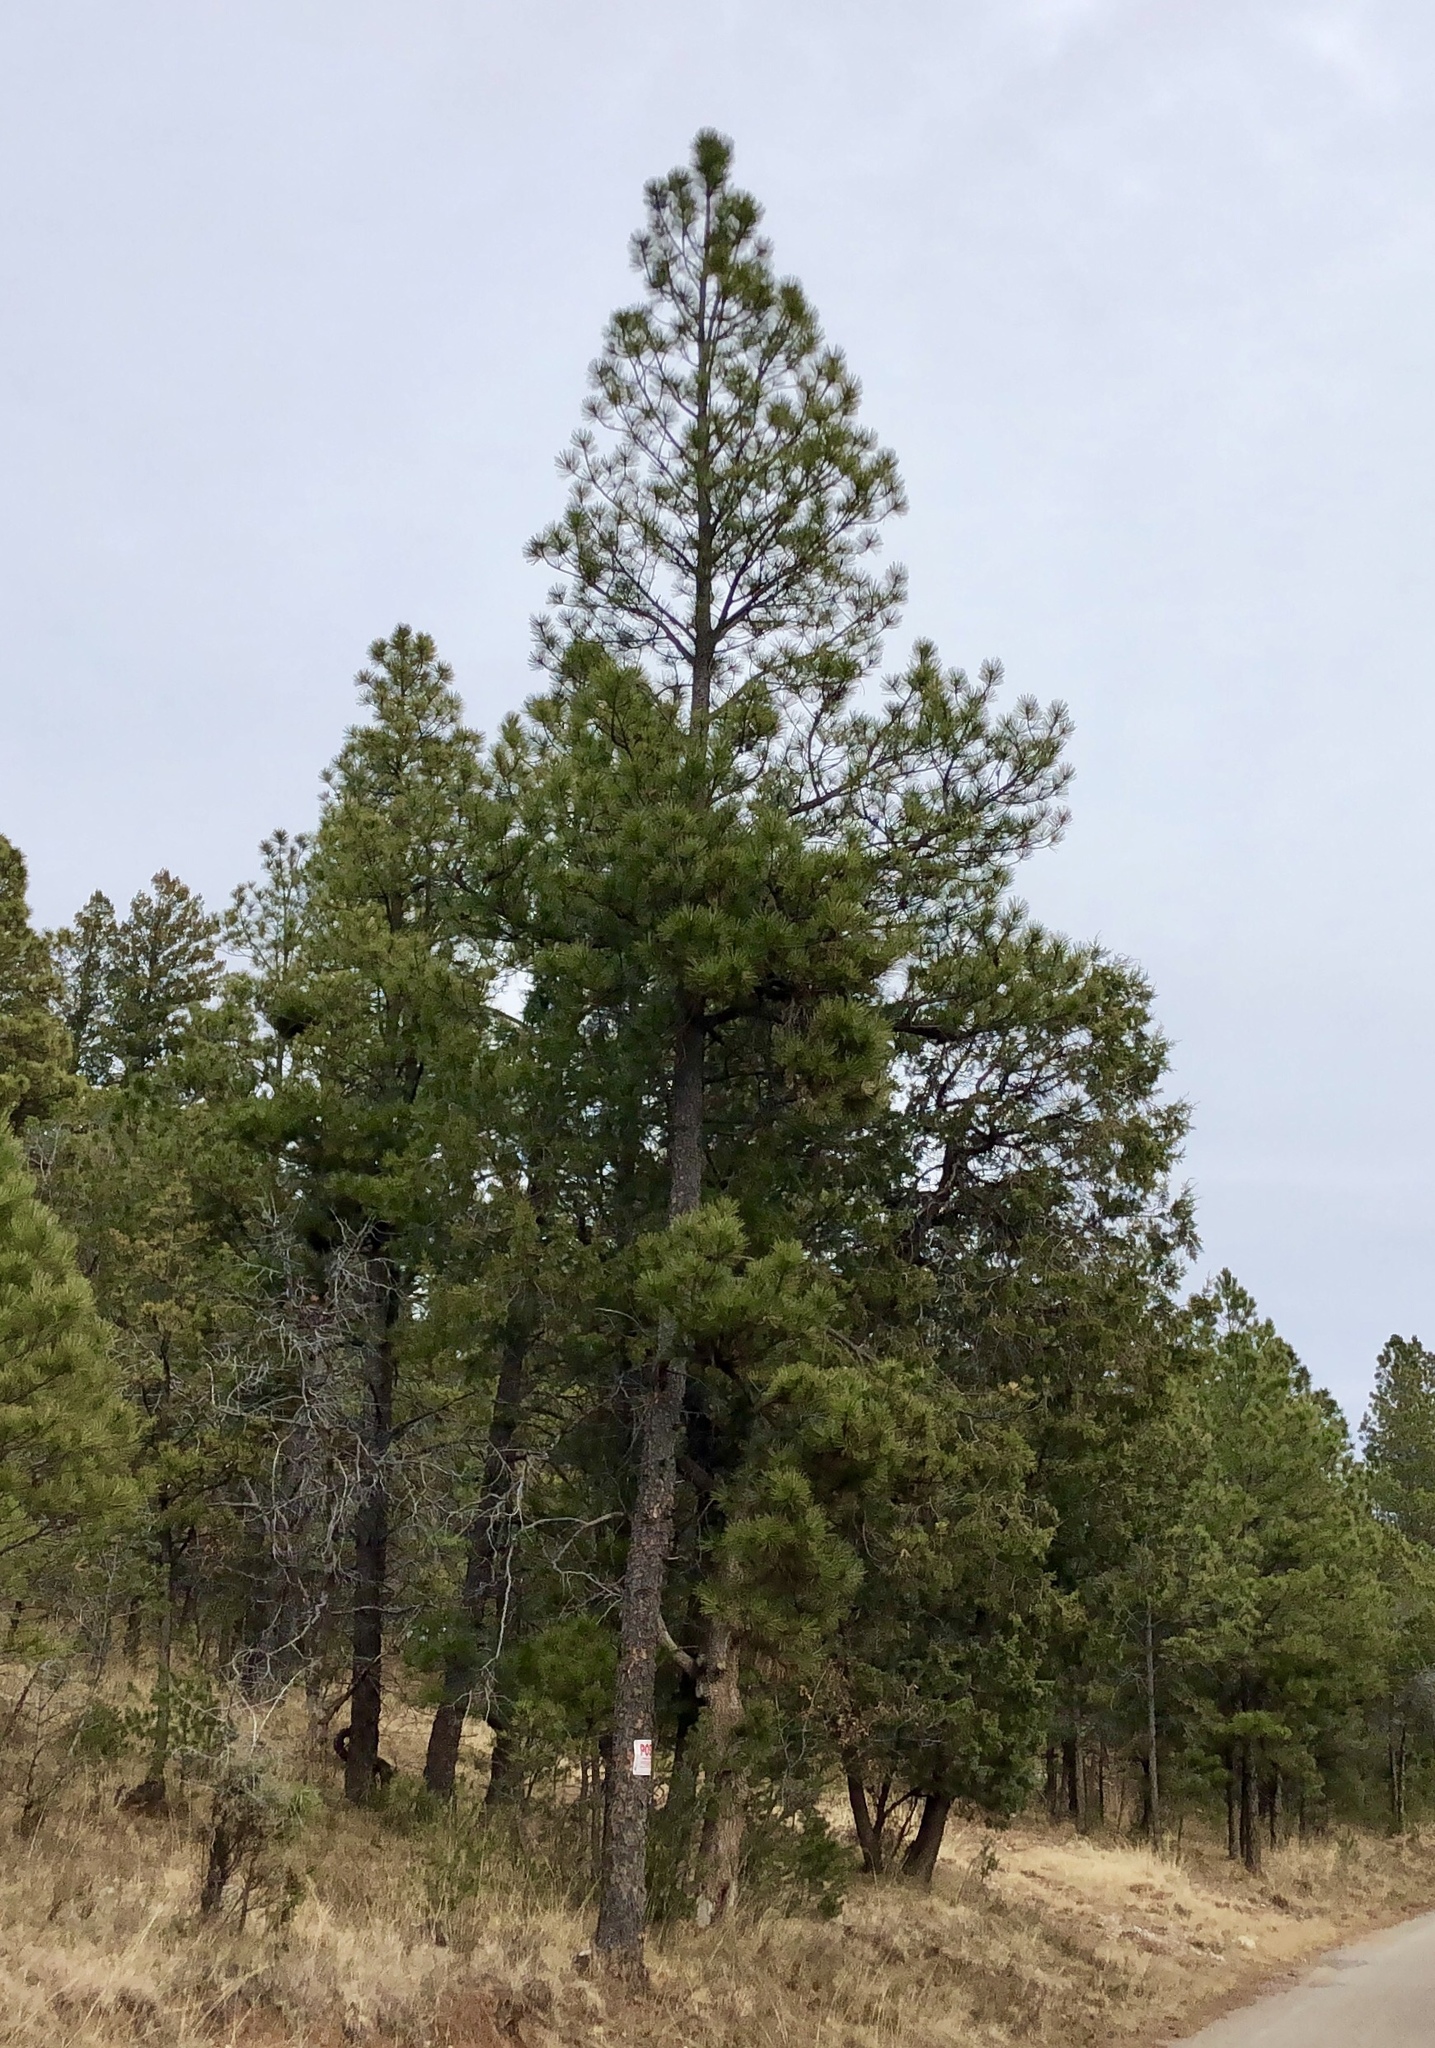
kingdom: Plantae
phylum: Tracheophyta
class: Pinopsida
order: Pinales
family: Pinaceae
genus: Pinus
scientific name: Pinus ponderosa
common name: Western yellow-pine
